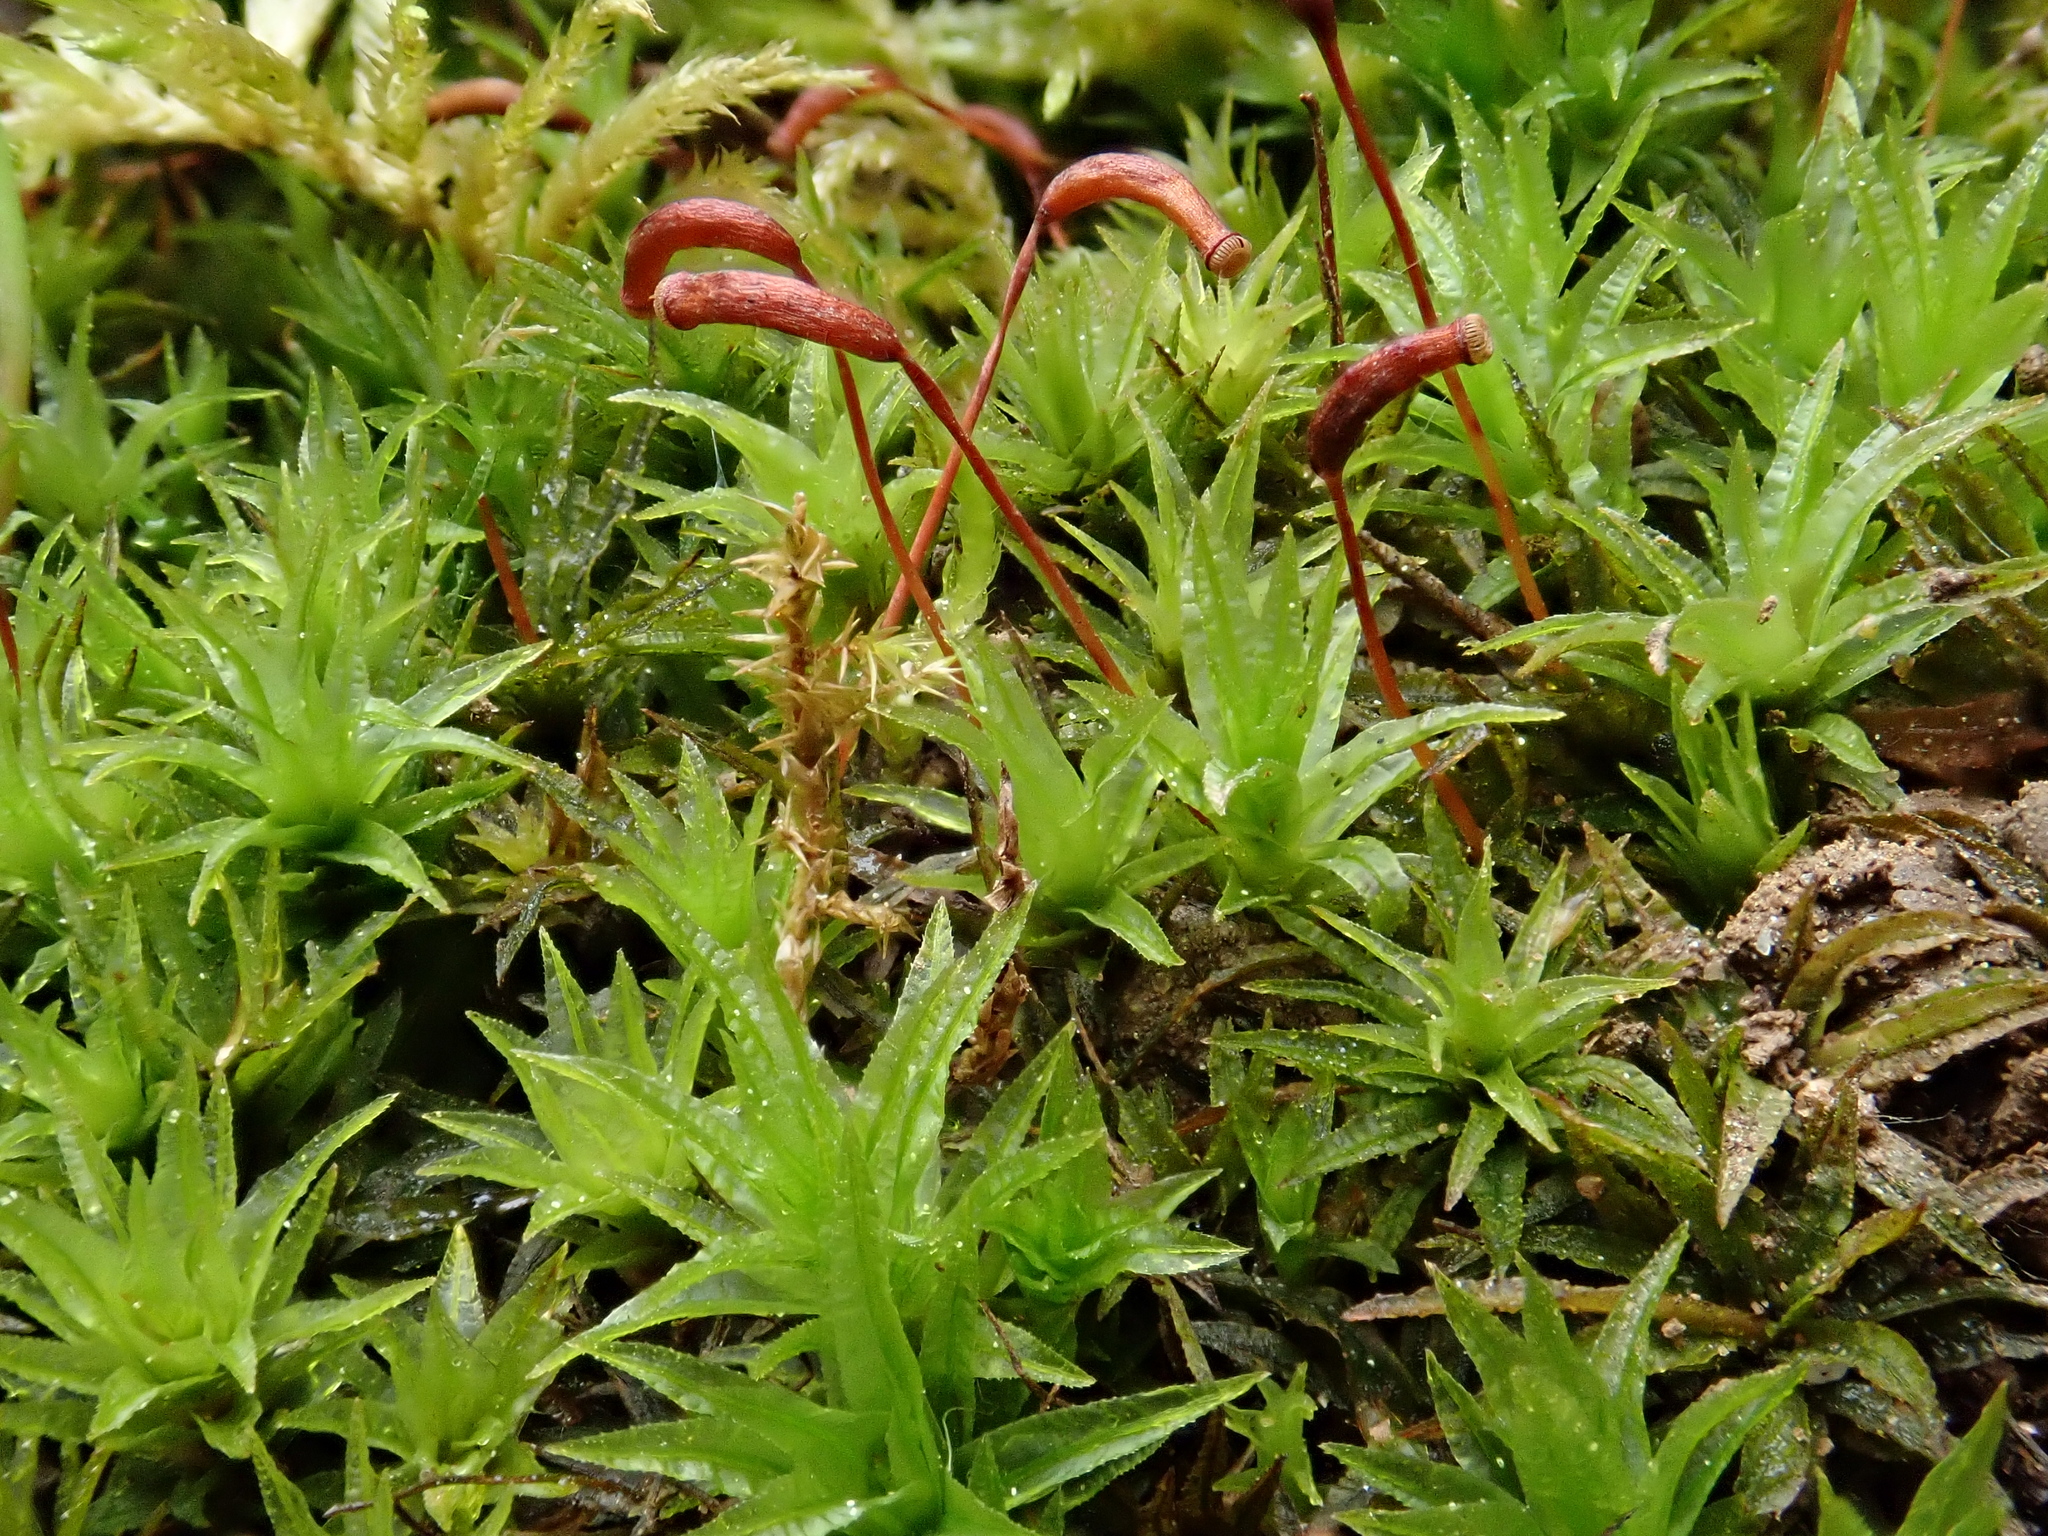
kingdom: Plantae
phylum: Bryophyta
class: Polytrichopsida
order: Polytrichales
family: Polytrichaceae
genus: Atrichum
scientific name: Atrichum undulatum
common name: Common smoothcap
